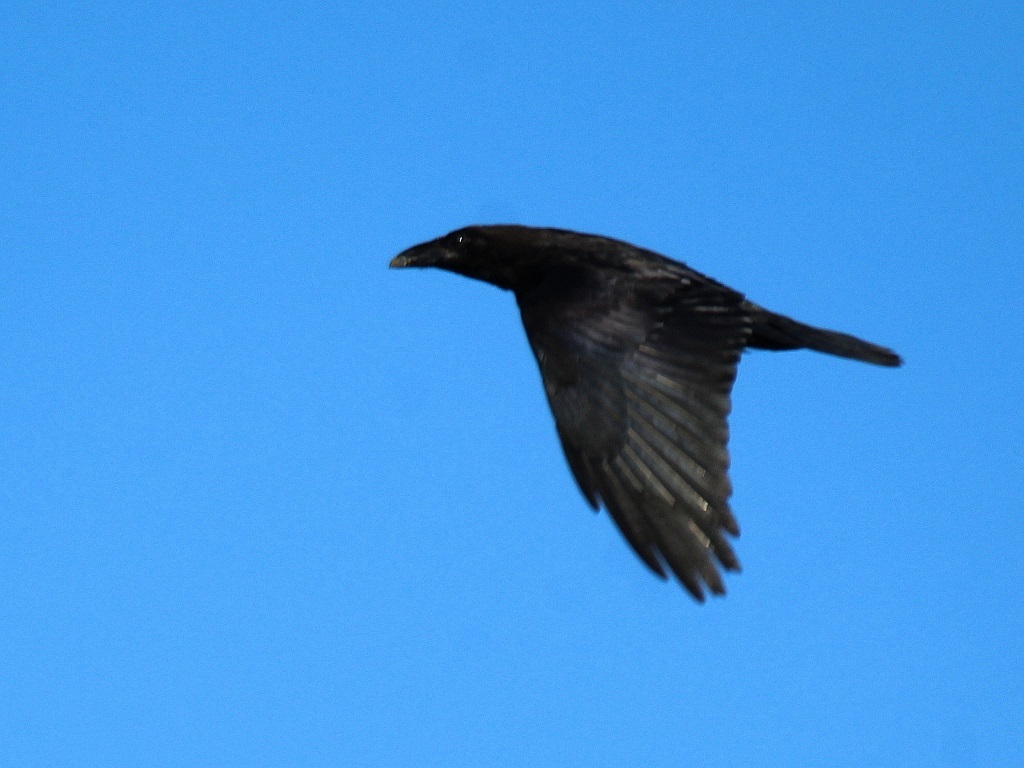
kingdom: Animalia
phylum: Chordata
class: Aves
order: Passeriformes
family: Corvidae
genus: Corvus
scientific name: Corvus corax
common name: Common raven
